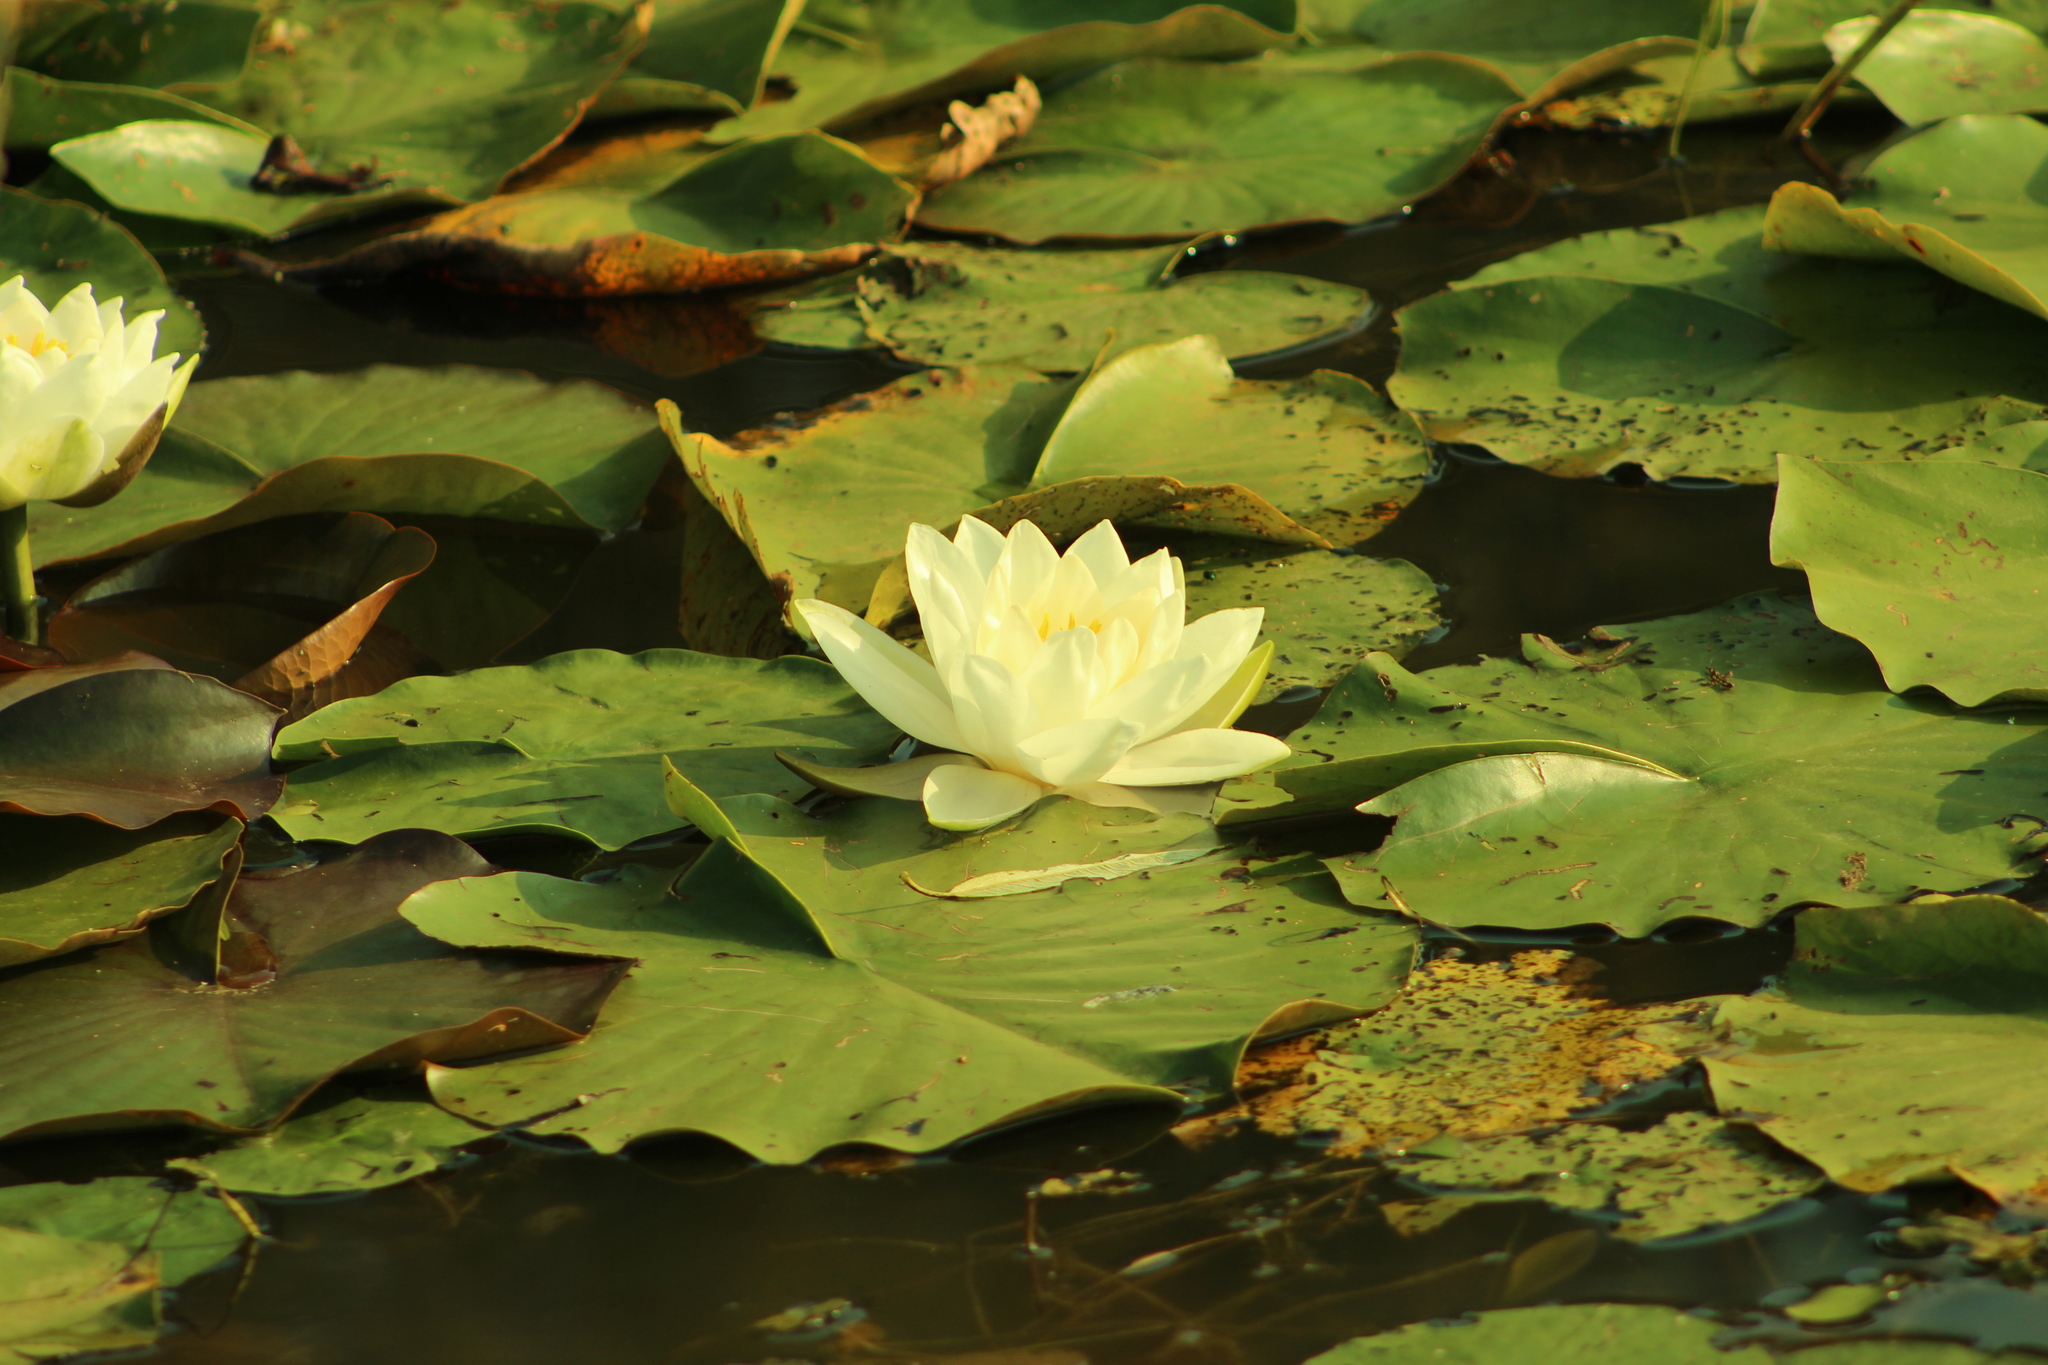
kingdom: Plantae
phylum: Tracheophyta
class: Magnoliopsida
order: Nymphaeales
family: Nymphaeaceae
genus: Nymphaea
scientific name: Nymphaea alba
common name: White water-lily
